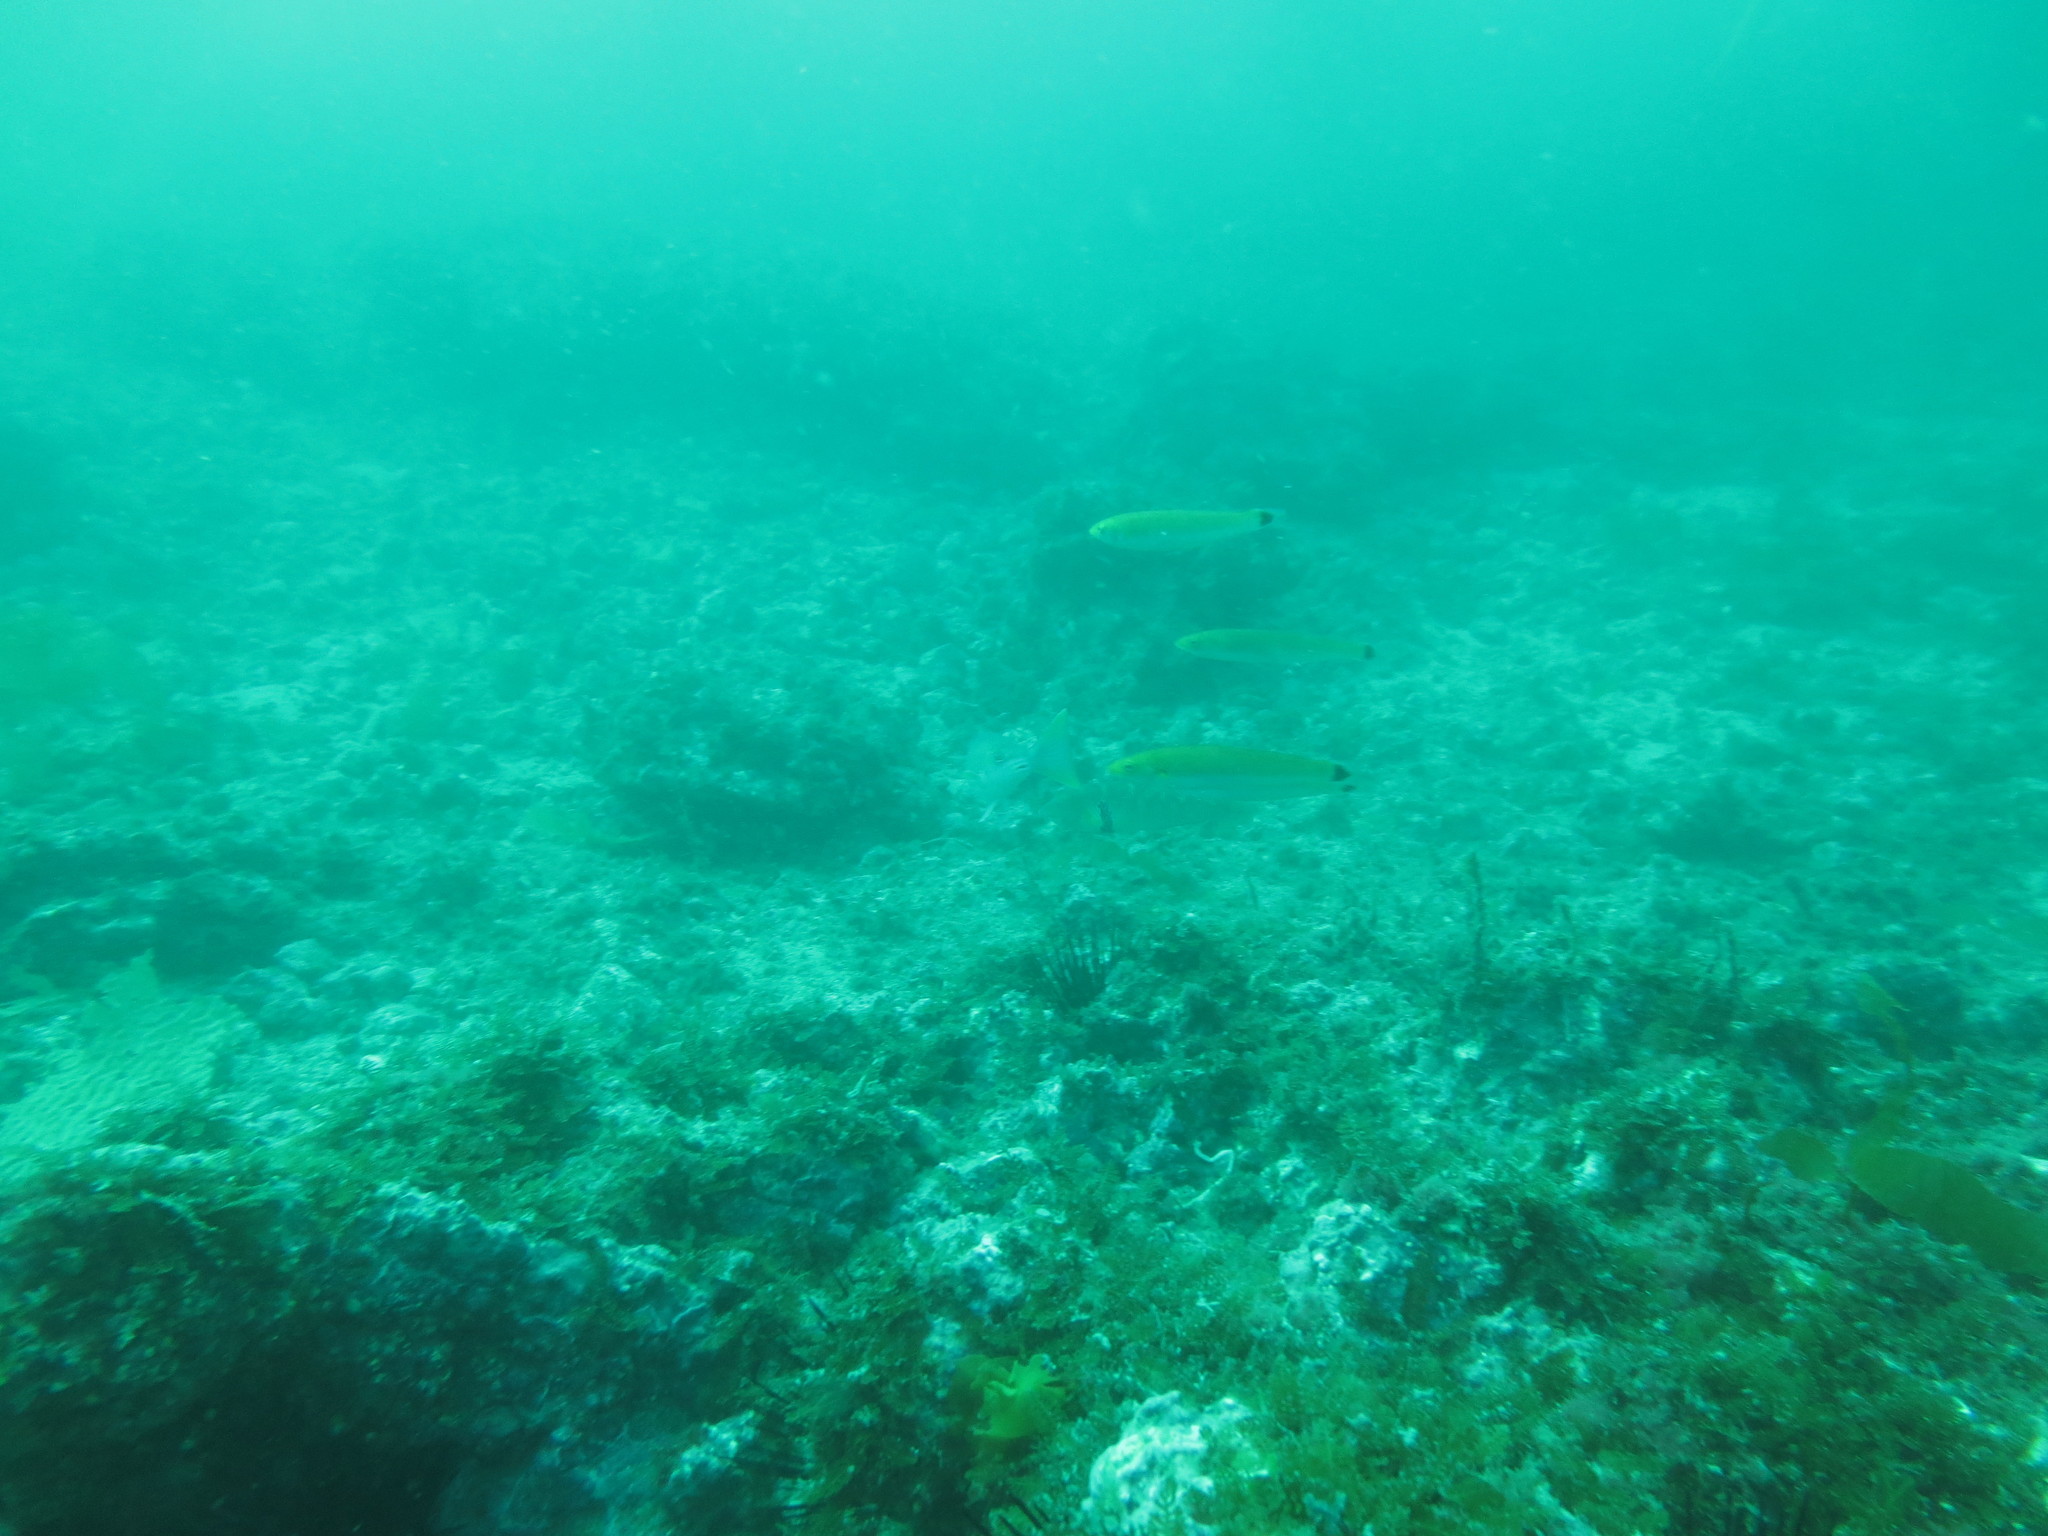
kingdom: Animalia
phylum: Chordata
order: Perciformes
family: Labridae
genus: Oxyjulis
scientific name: Oxyjulis californica
